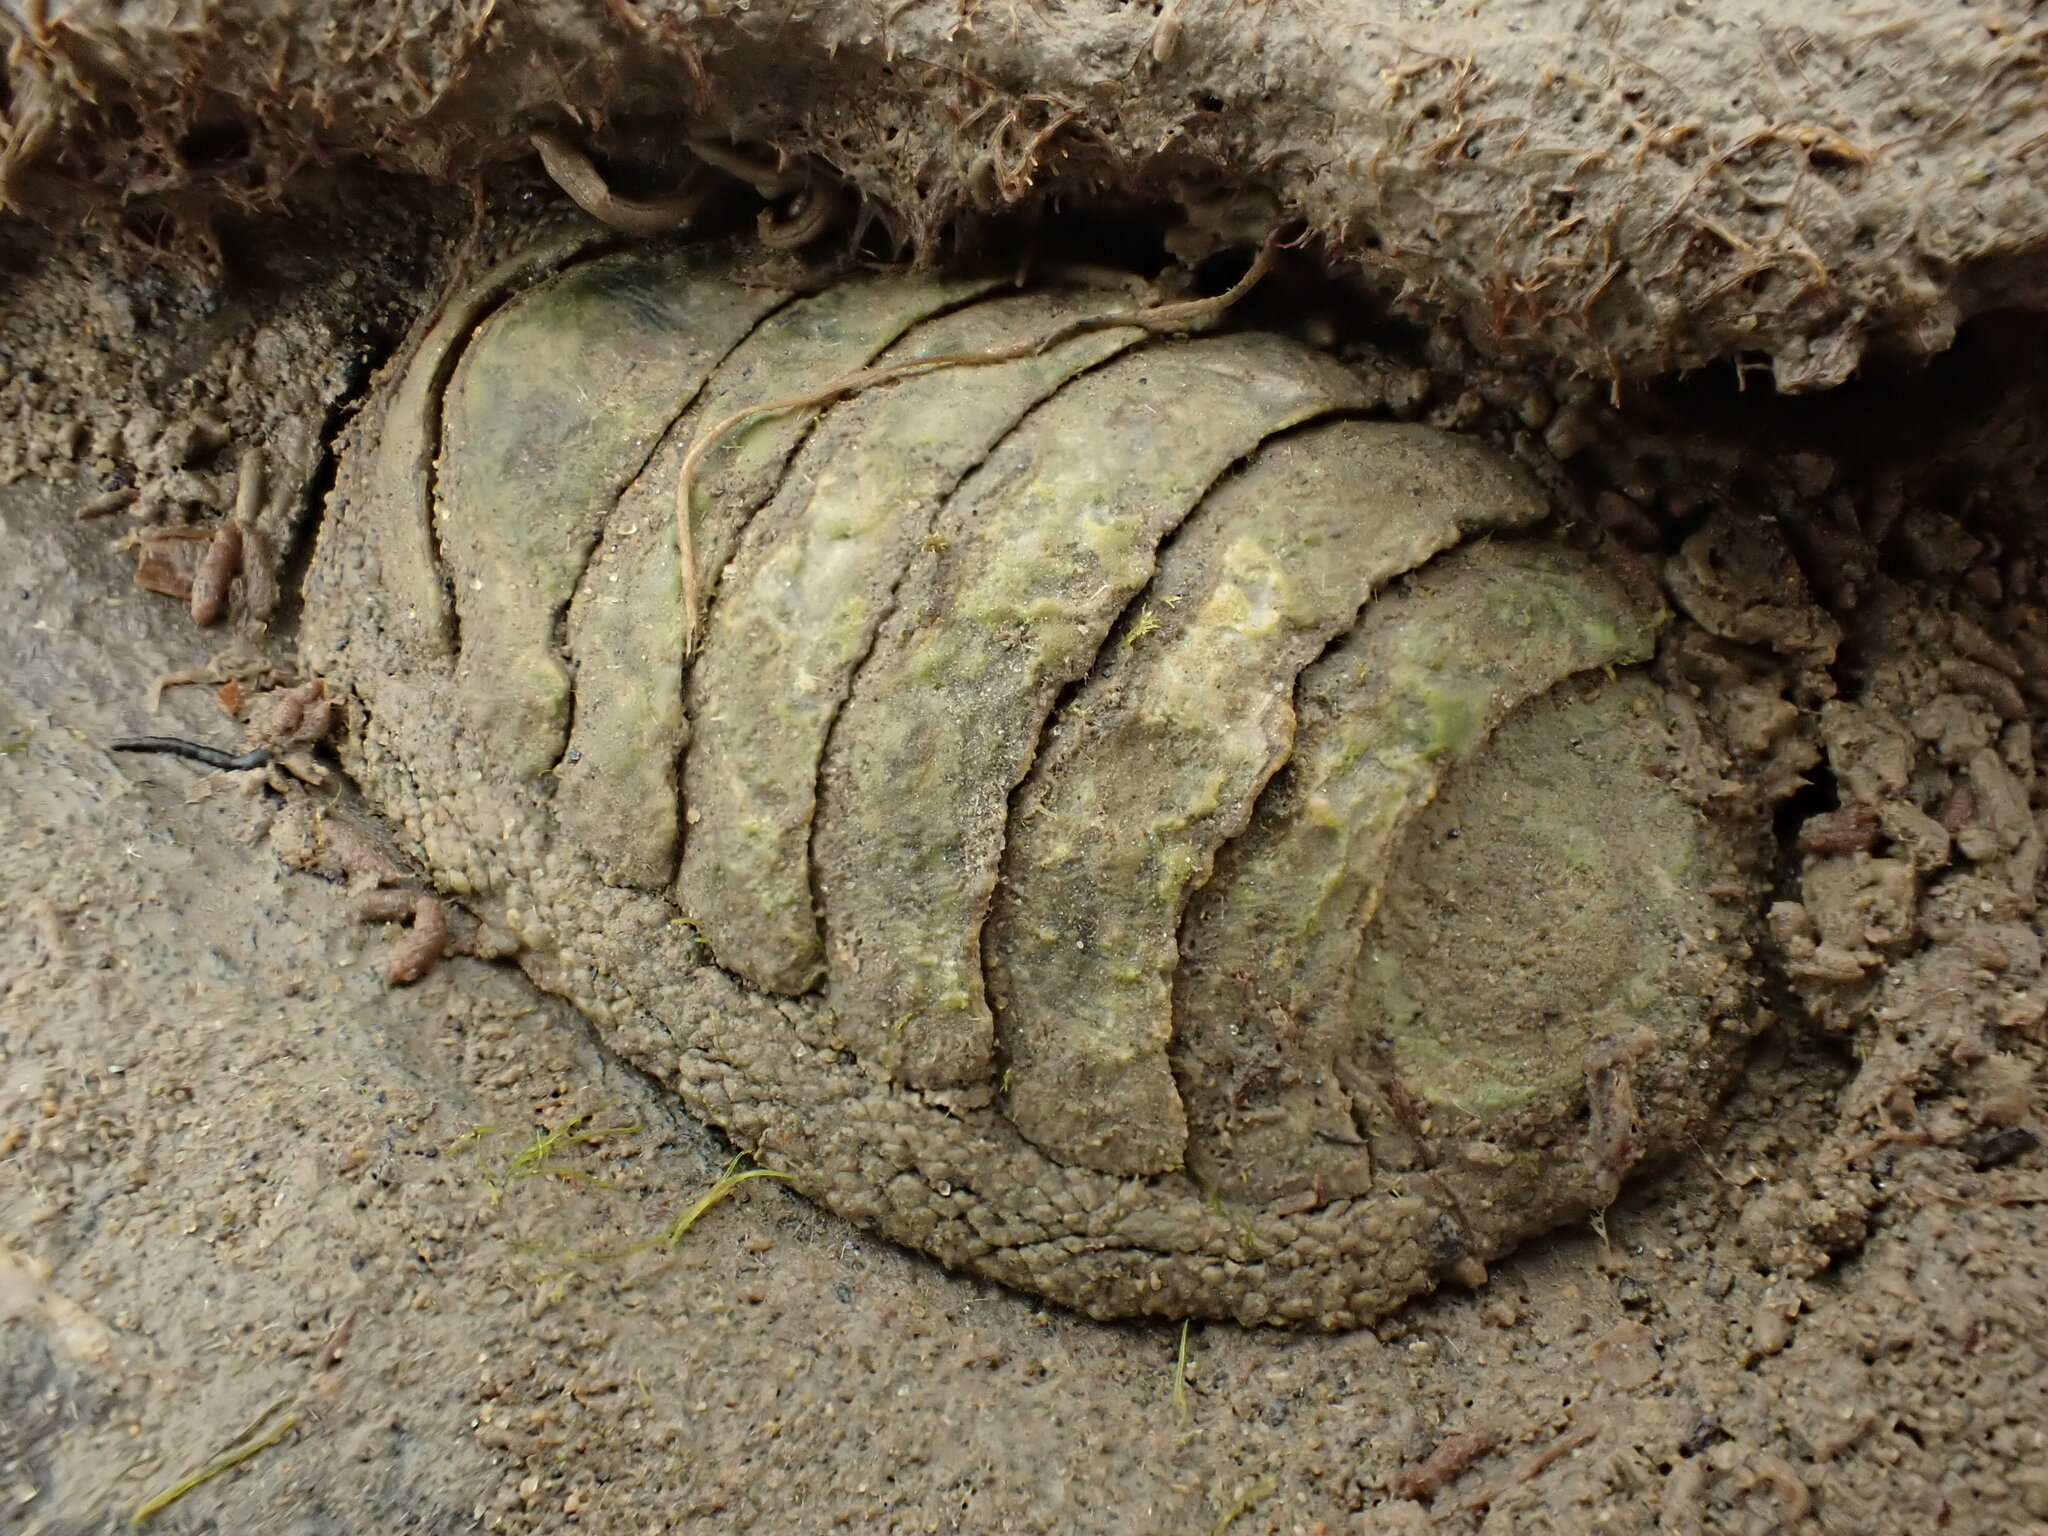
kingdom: Animalia
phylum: Mollusca
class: Polyplacophora
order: Chitonida
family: Chitonidae
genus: Sypharochiton
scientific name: Sypharochiton pelliserpentis
